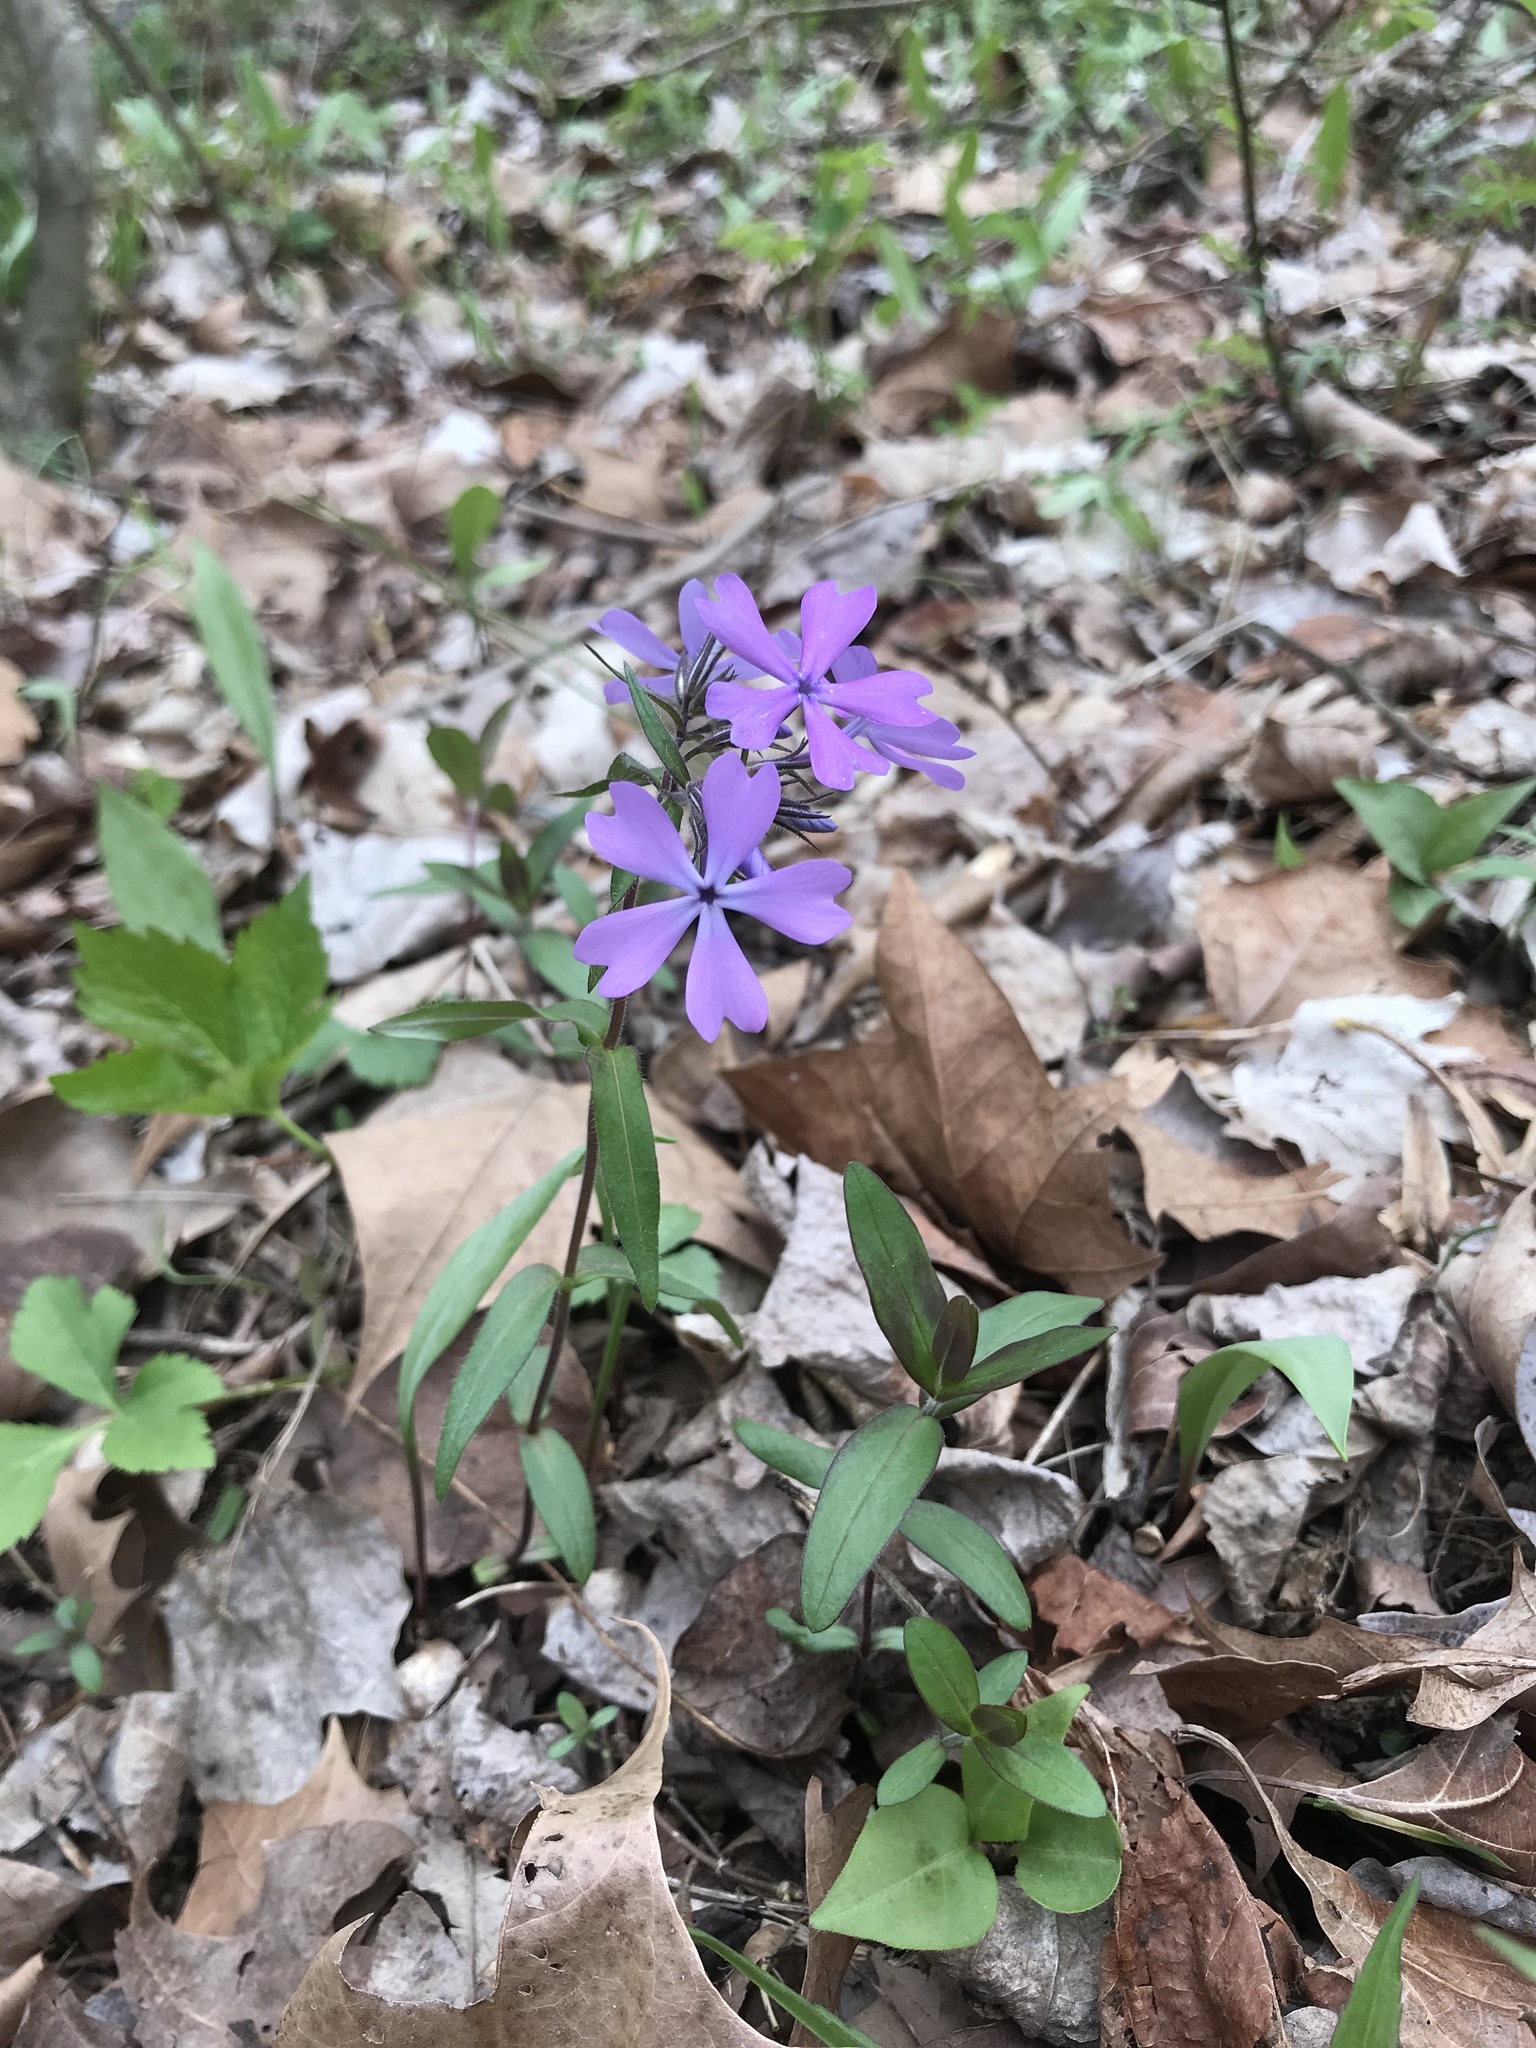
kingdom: Plantae
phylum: Tracheophyta
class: Magnoliopsida
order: Ericales
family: Polemoniaceae
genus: Phlox
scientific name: Phlox divaricata
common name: Blue phlox
